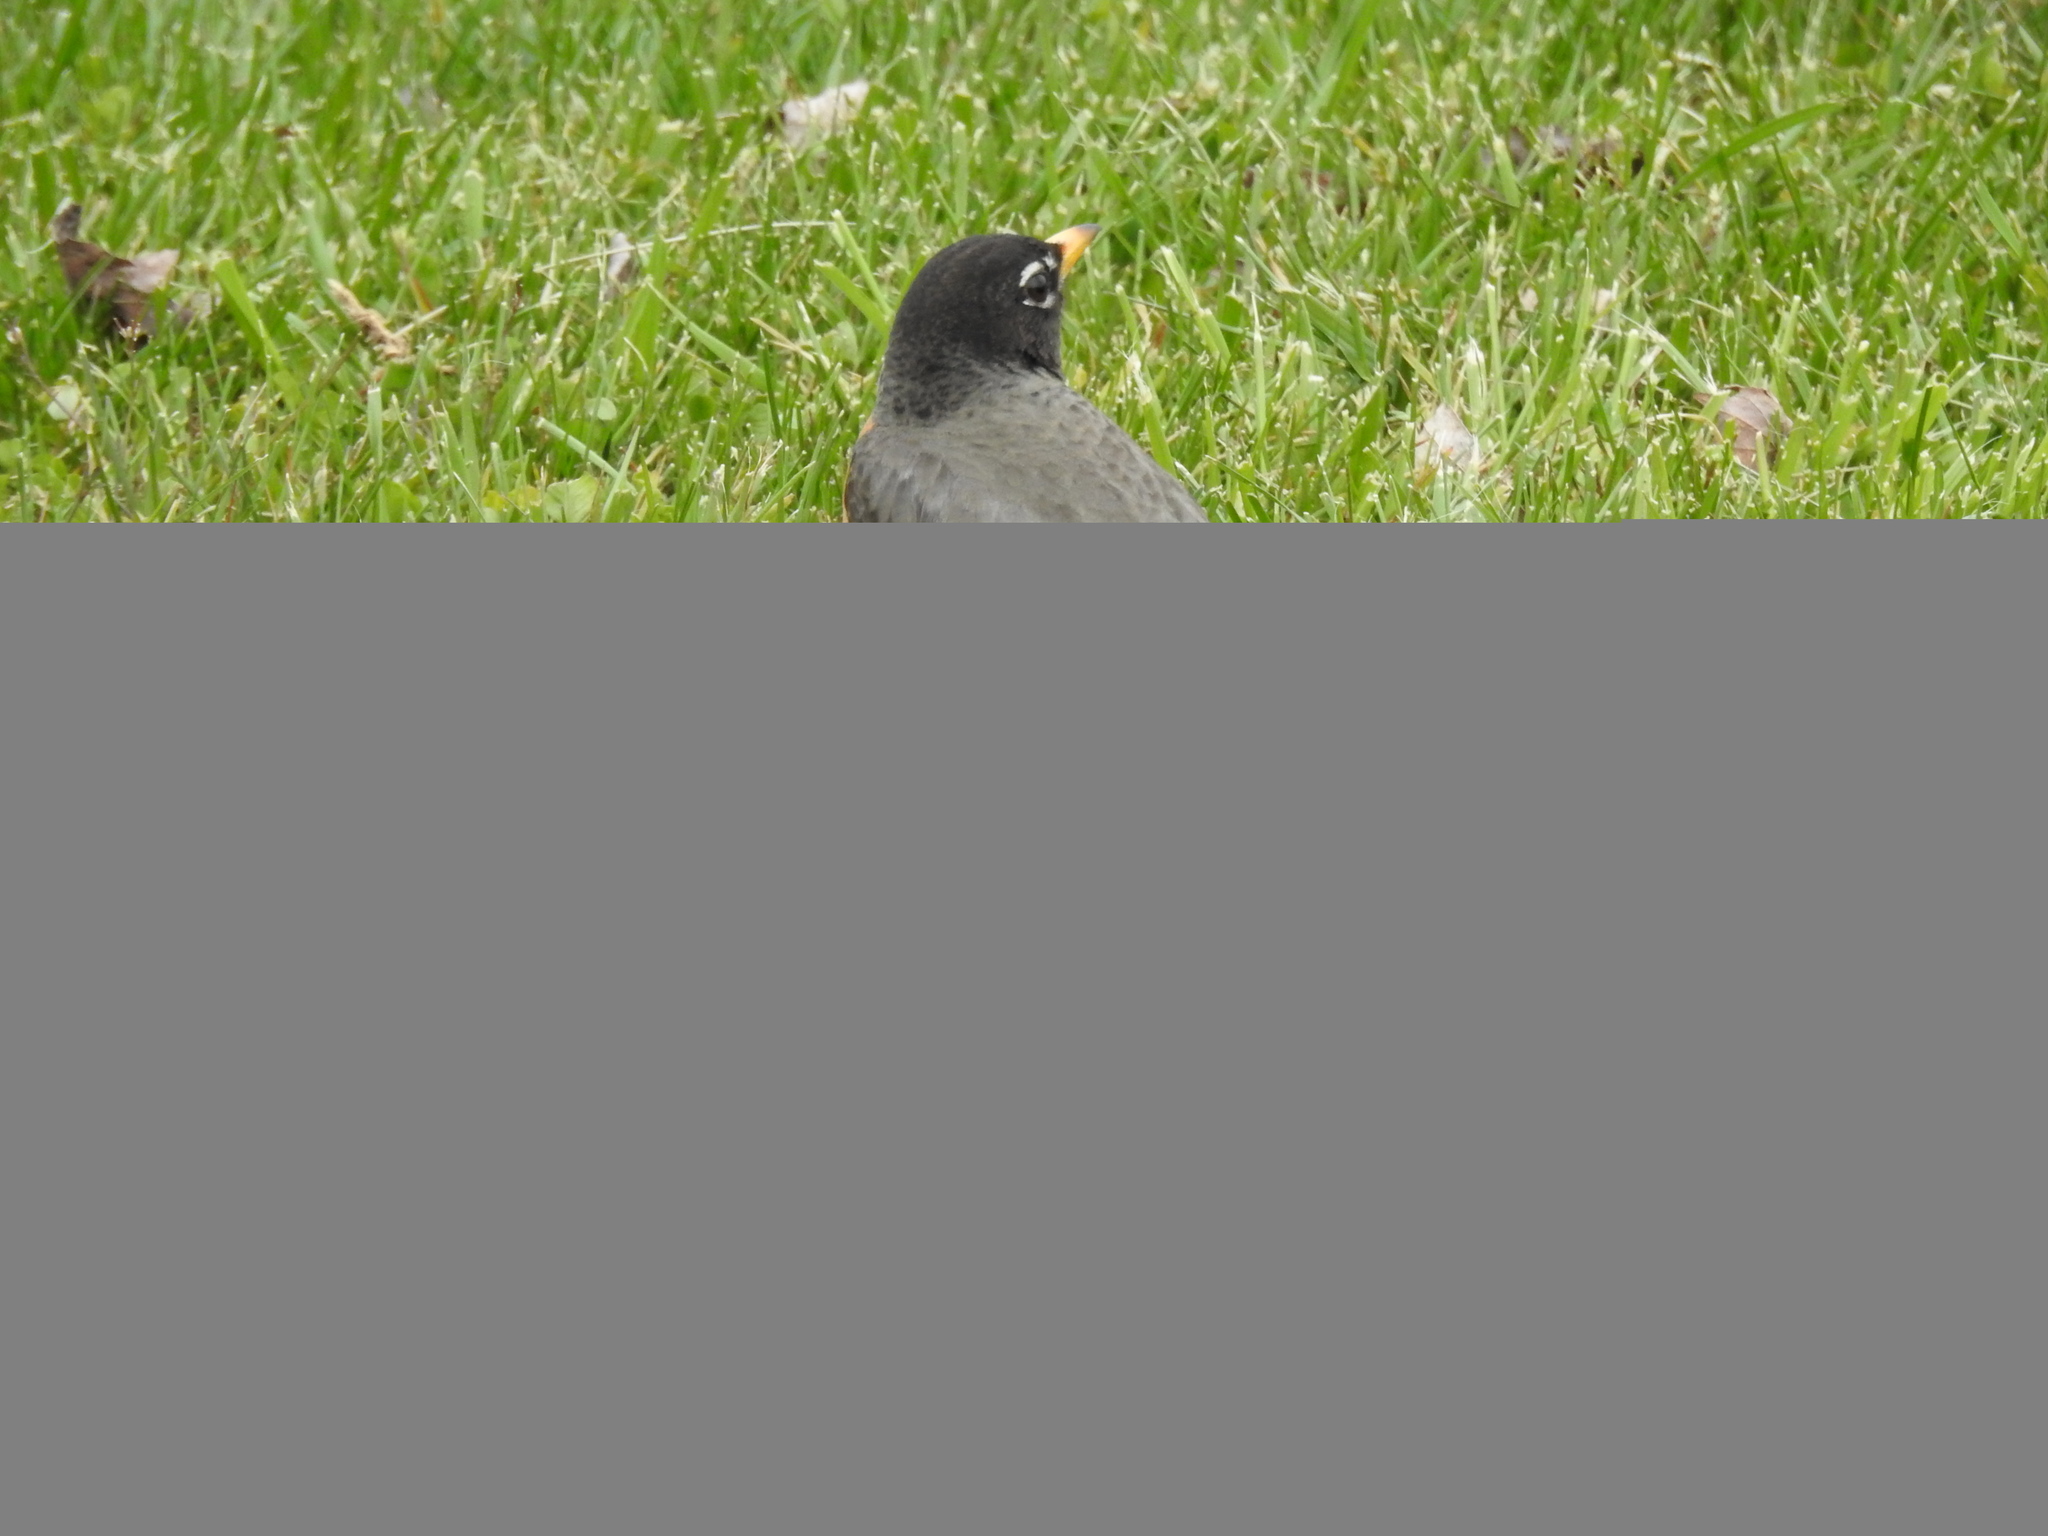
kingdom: Animalia
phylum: Chordata
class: Aves
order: Passeriformes
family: Turdidae
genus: Turdus
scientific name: Turdus migratorius
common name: American robin
